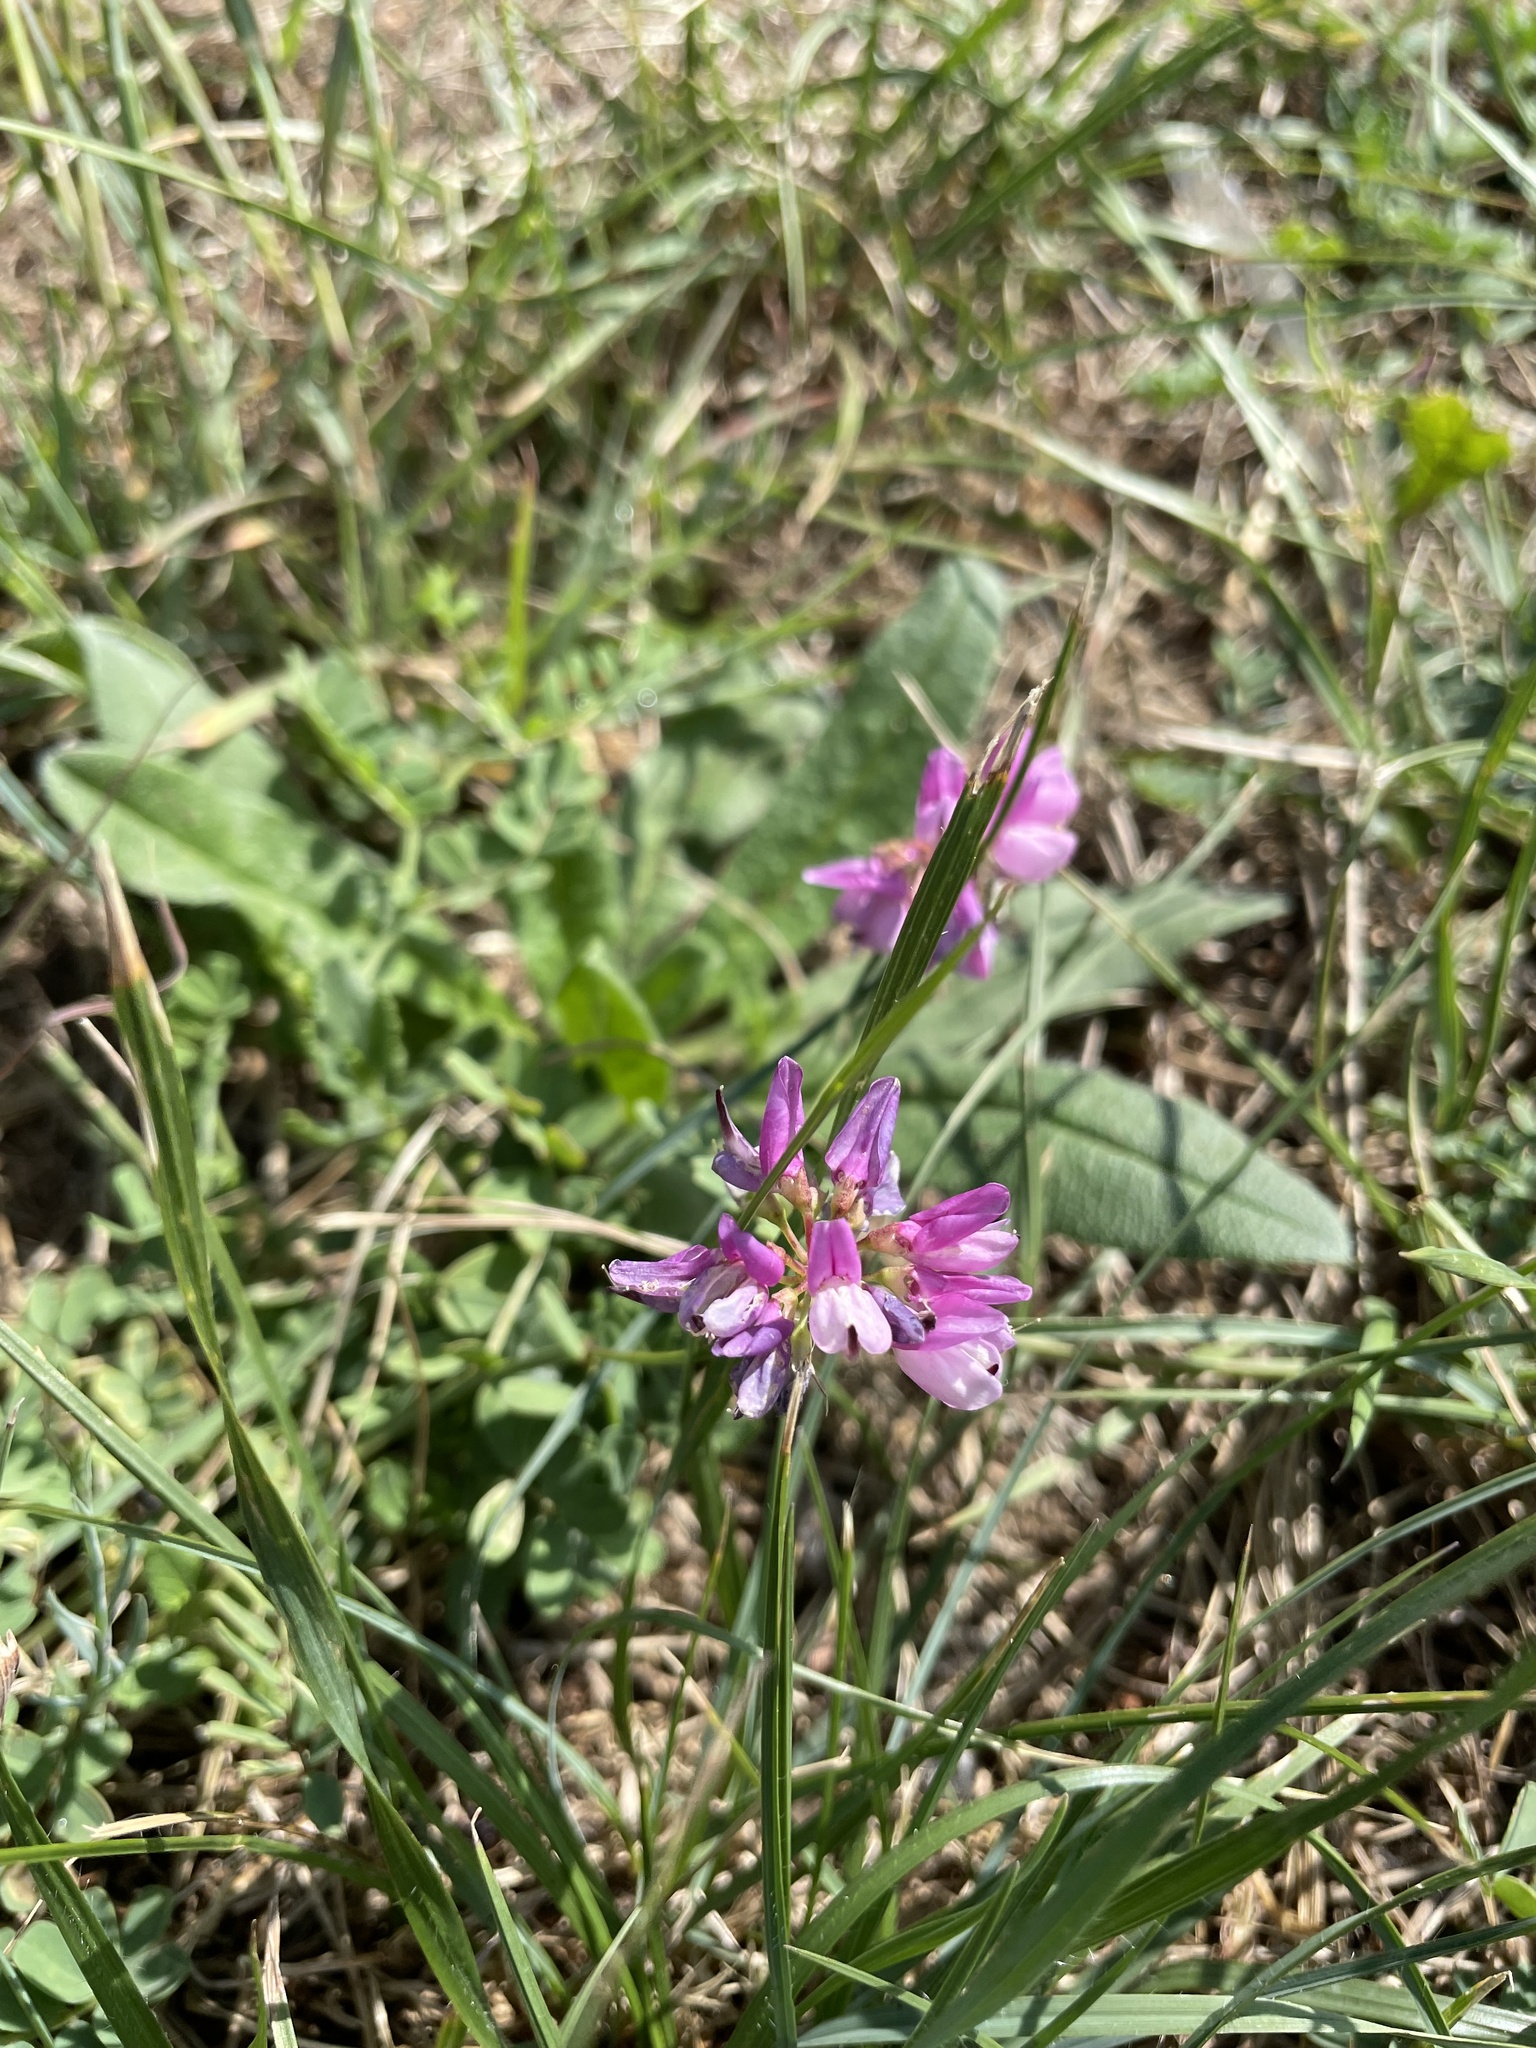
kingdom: Plantae
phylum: Tracheophyta
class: Magnoliopsida
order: Fabales
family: Fabaceae
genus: Coronilla
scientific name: Coronilla varia
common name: Crownvetch
